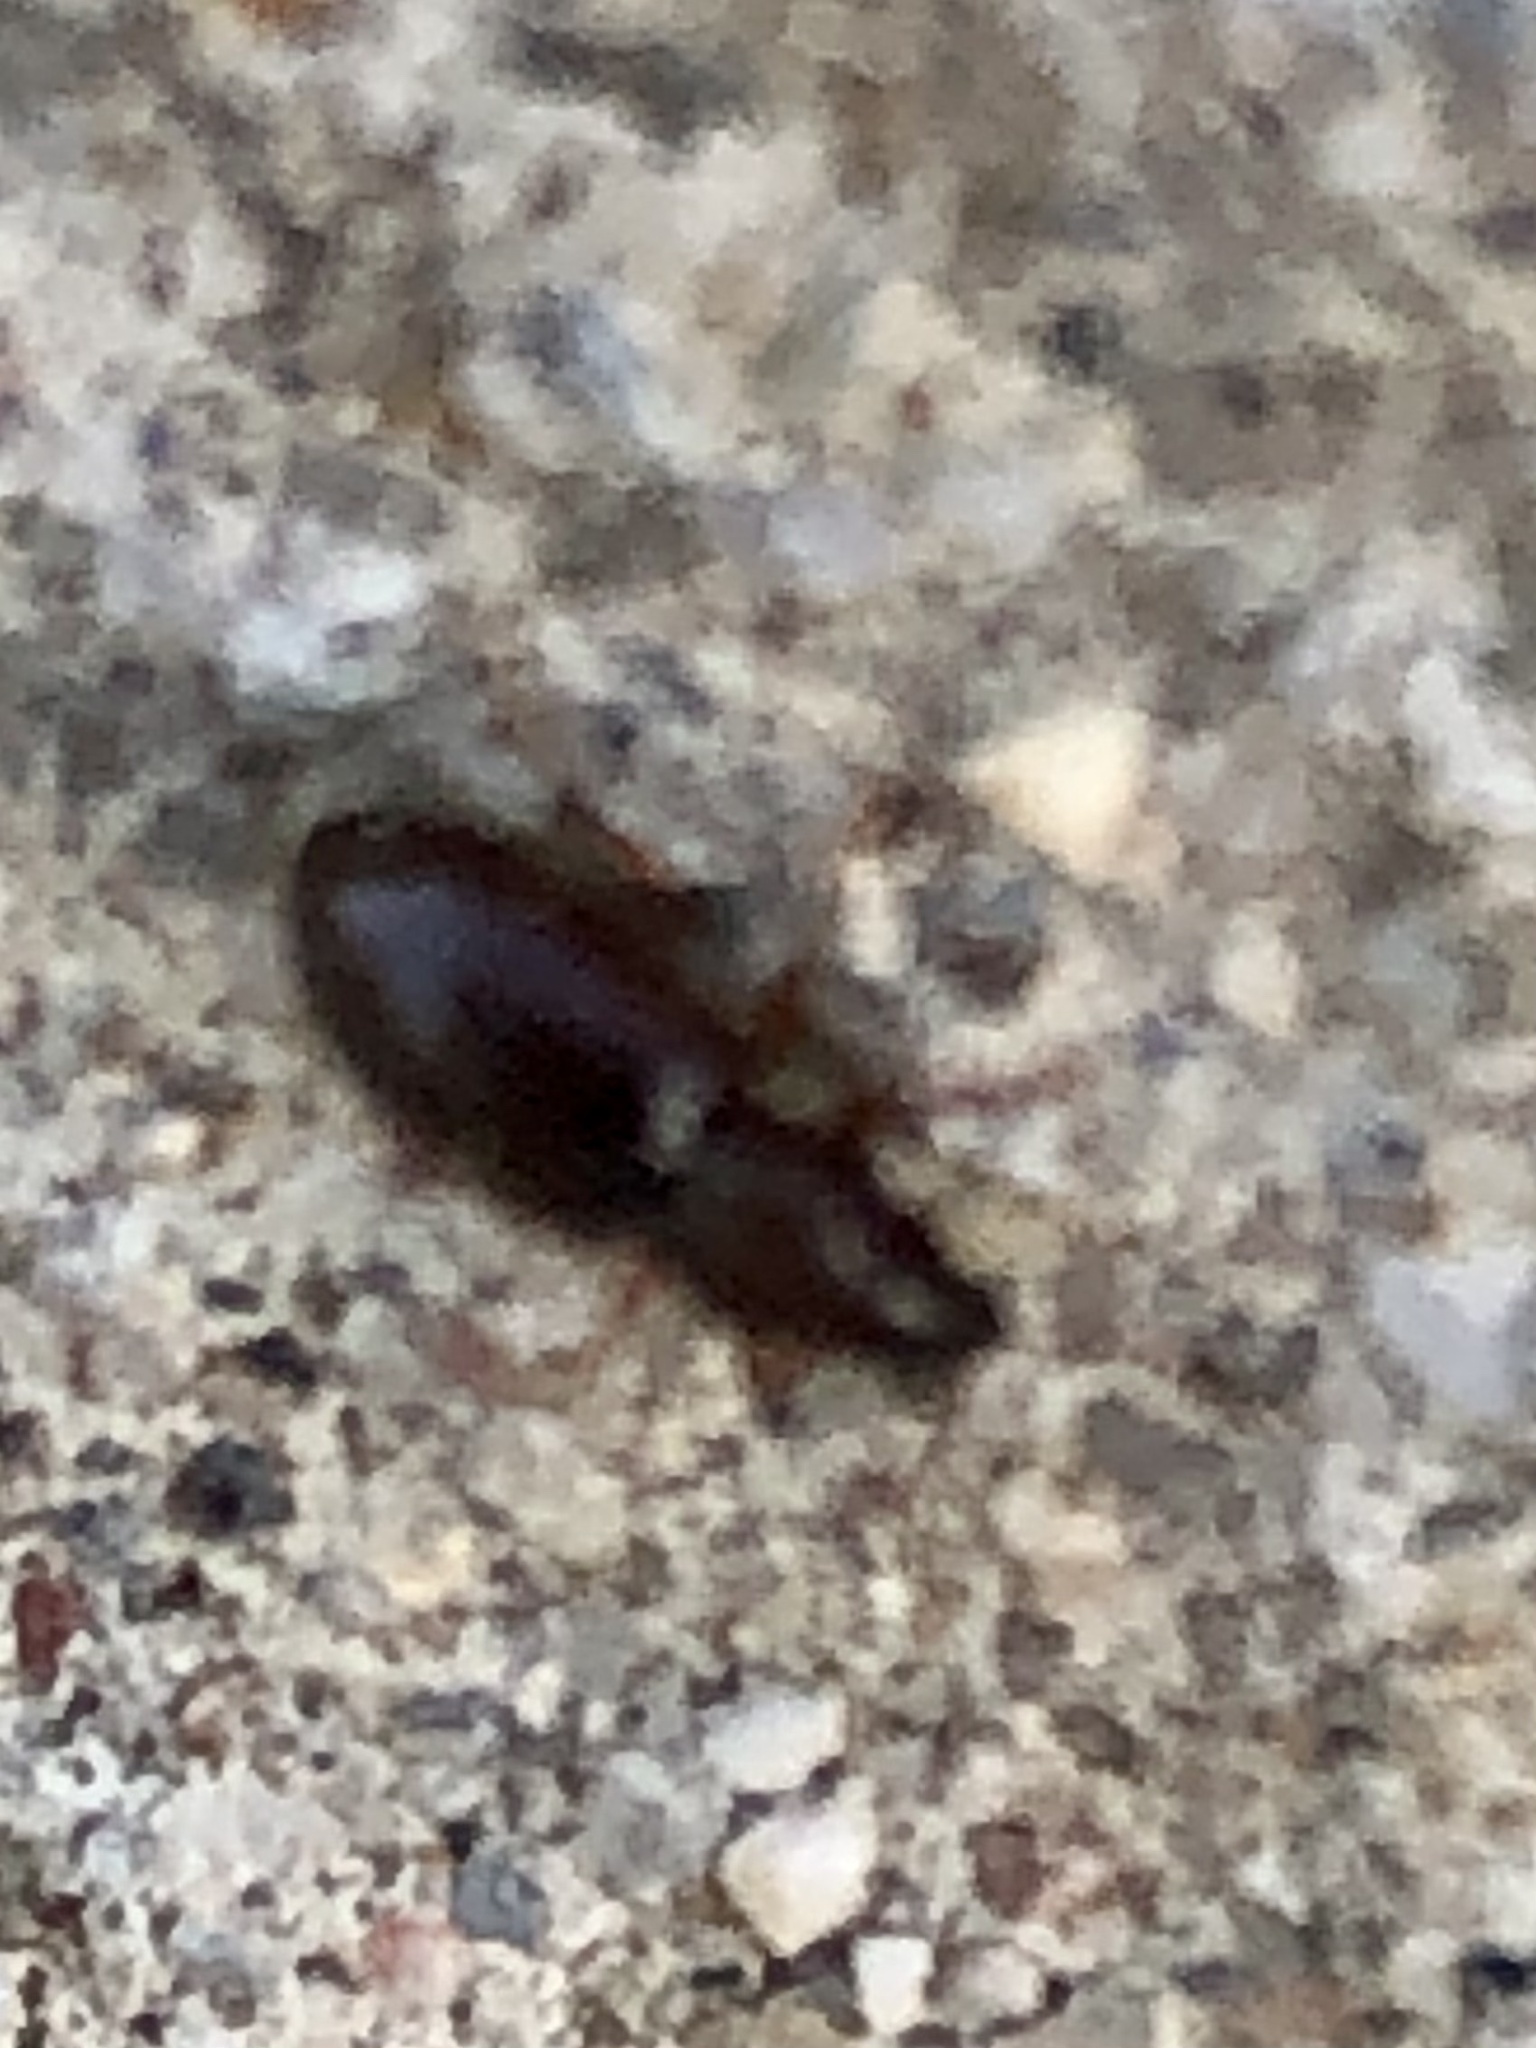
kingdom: Animalia
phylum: Arthropoda
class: Insecta
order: Coleoptera
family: Curculionidae
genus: Exomias
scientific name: Exomias pellucidus
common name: Hairy spider weevil
